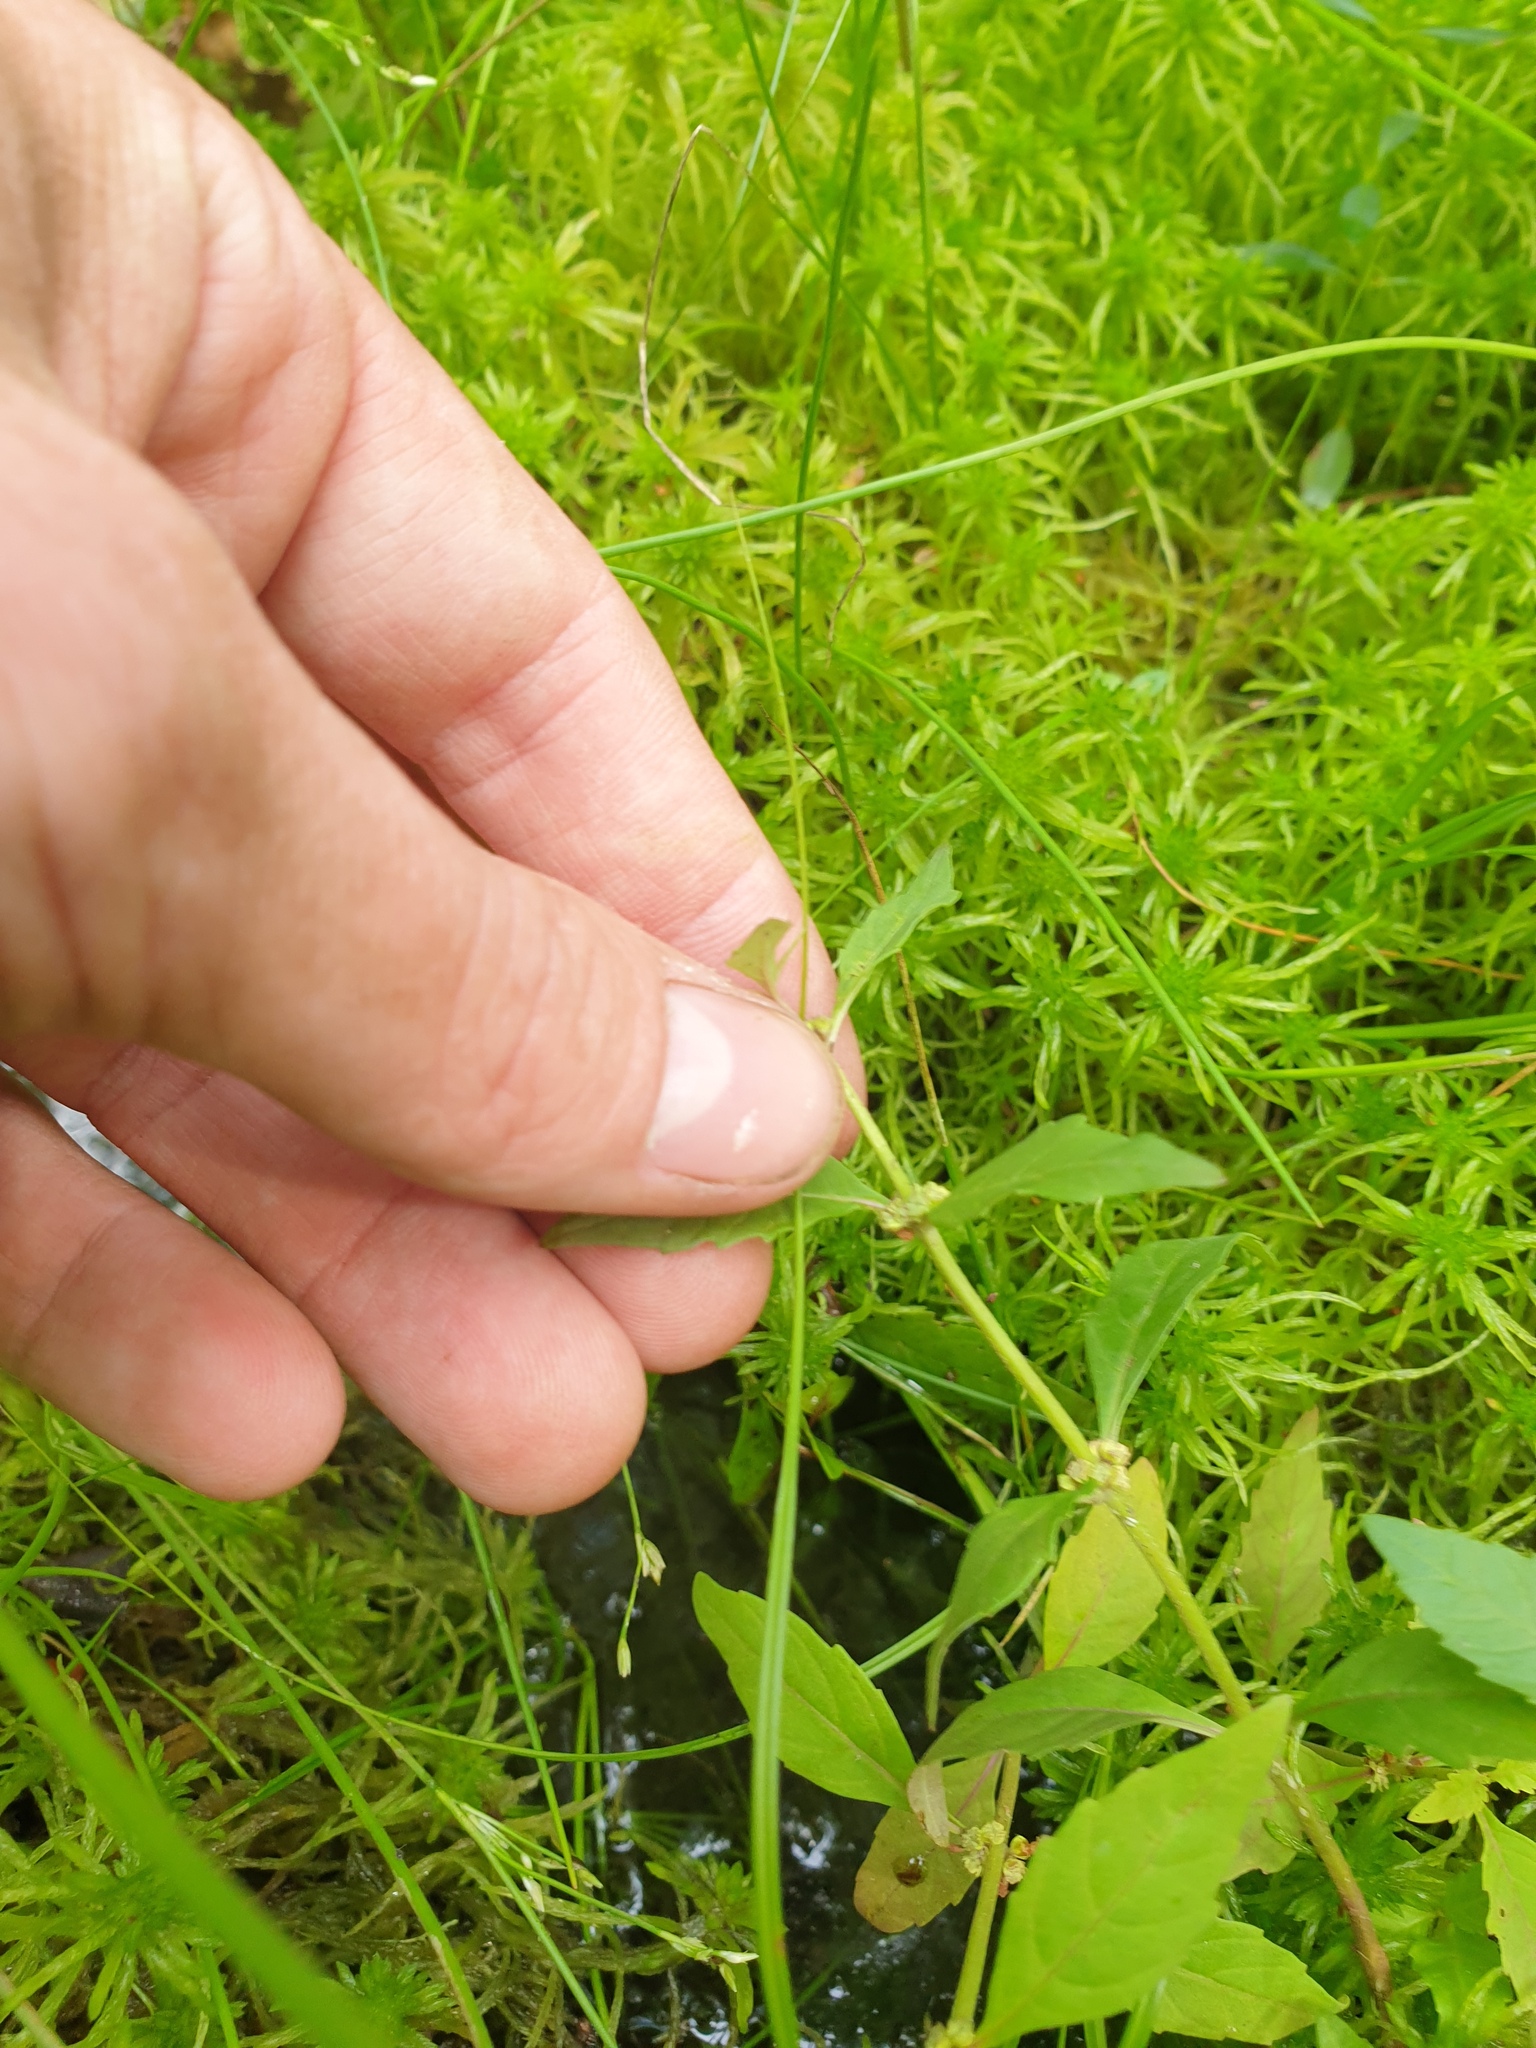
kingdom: Plantae
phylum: Tracheophyta
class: Magnoliopsida
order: Lamiales
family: Lamiaceae
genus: Lycopus
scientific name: Lycopus uniflorus
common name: Northern bugleweed
